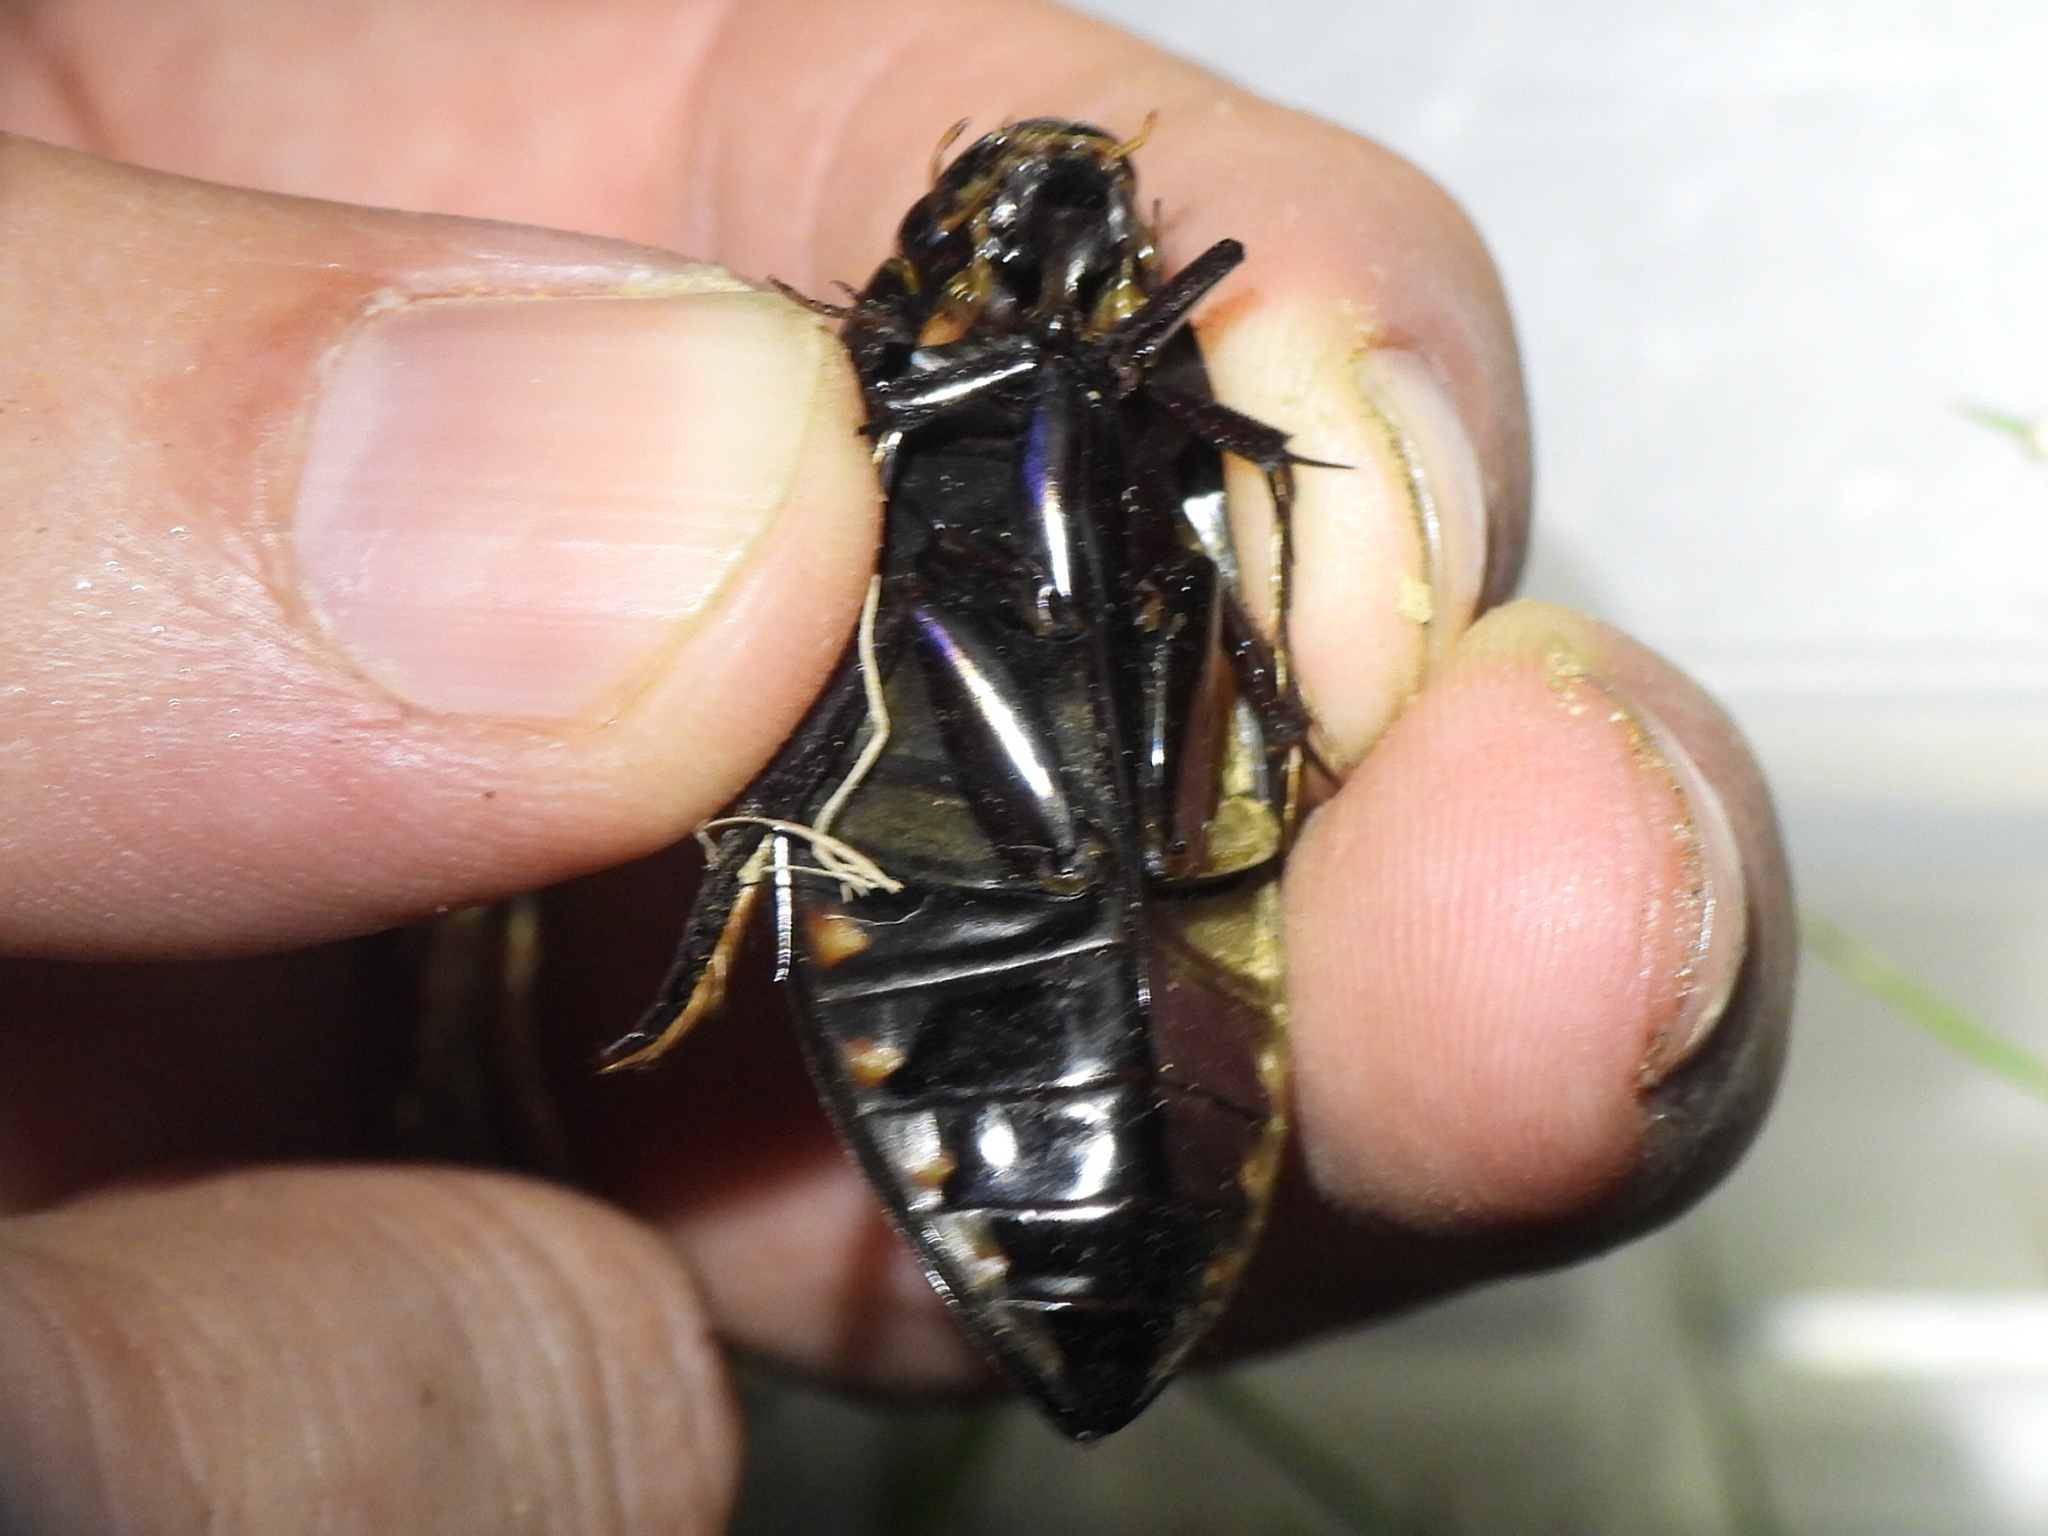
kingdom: Animalia
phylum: Arthropoda
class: Insecta
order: Coleoptera
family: Hydrophilidae
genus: Hydrophilus
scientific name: Hydrophilus triangularis
